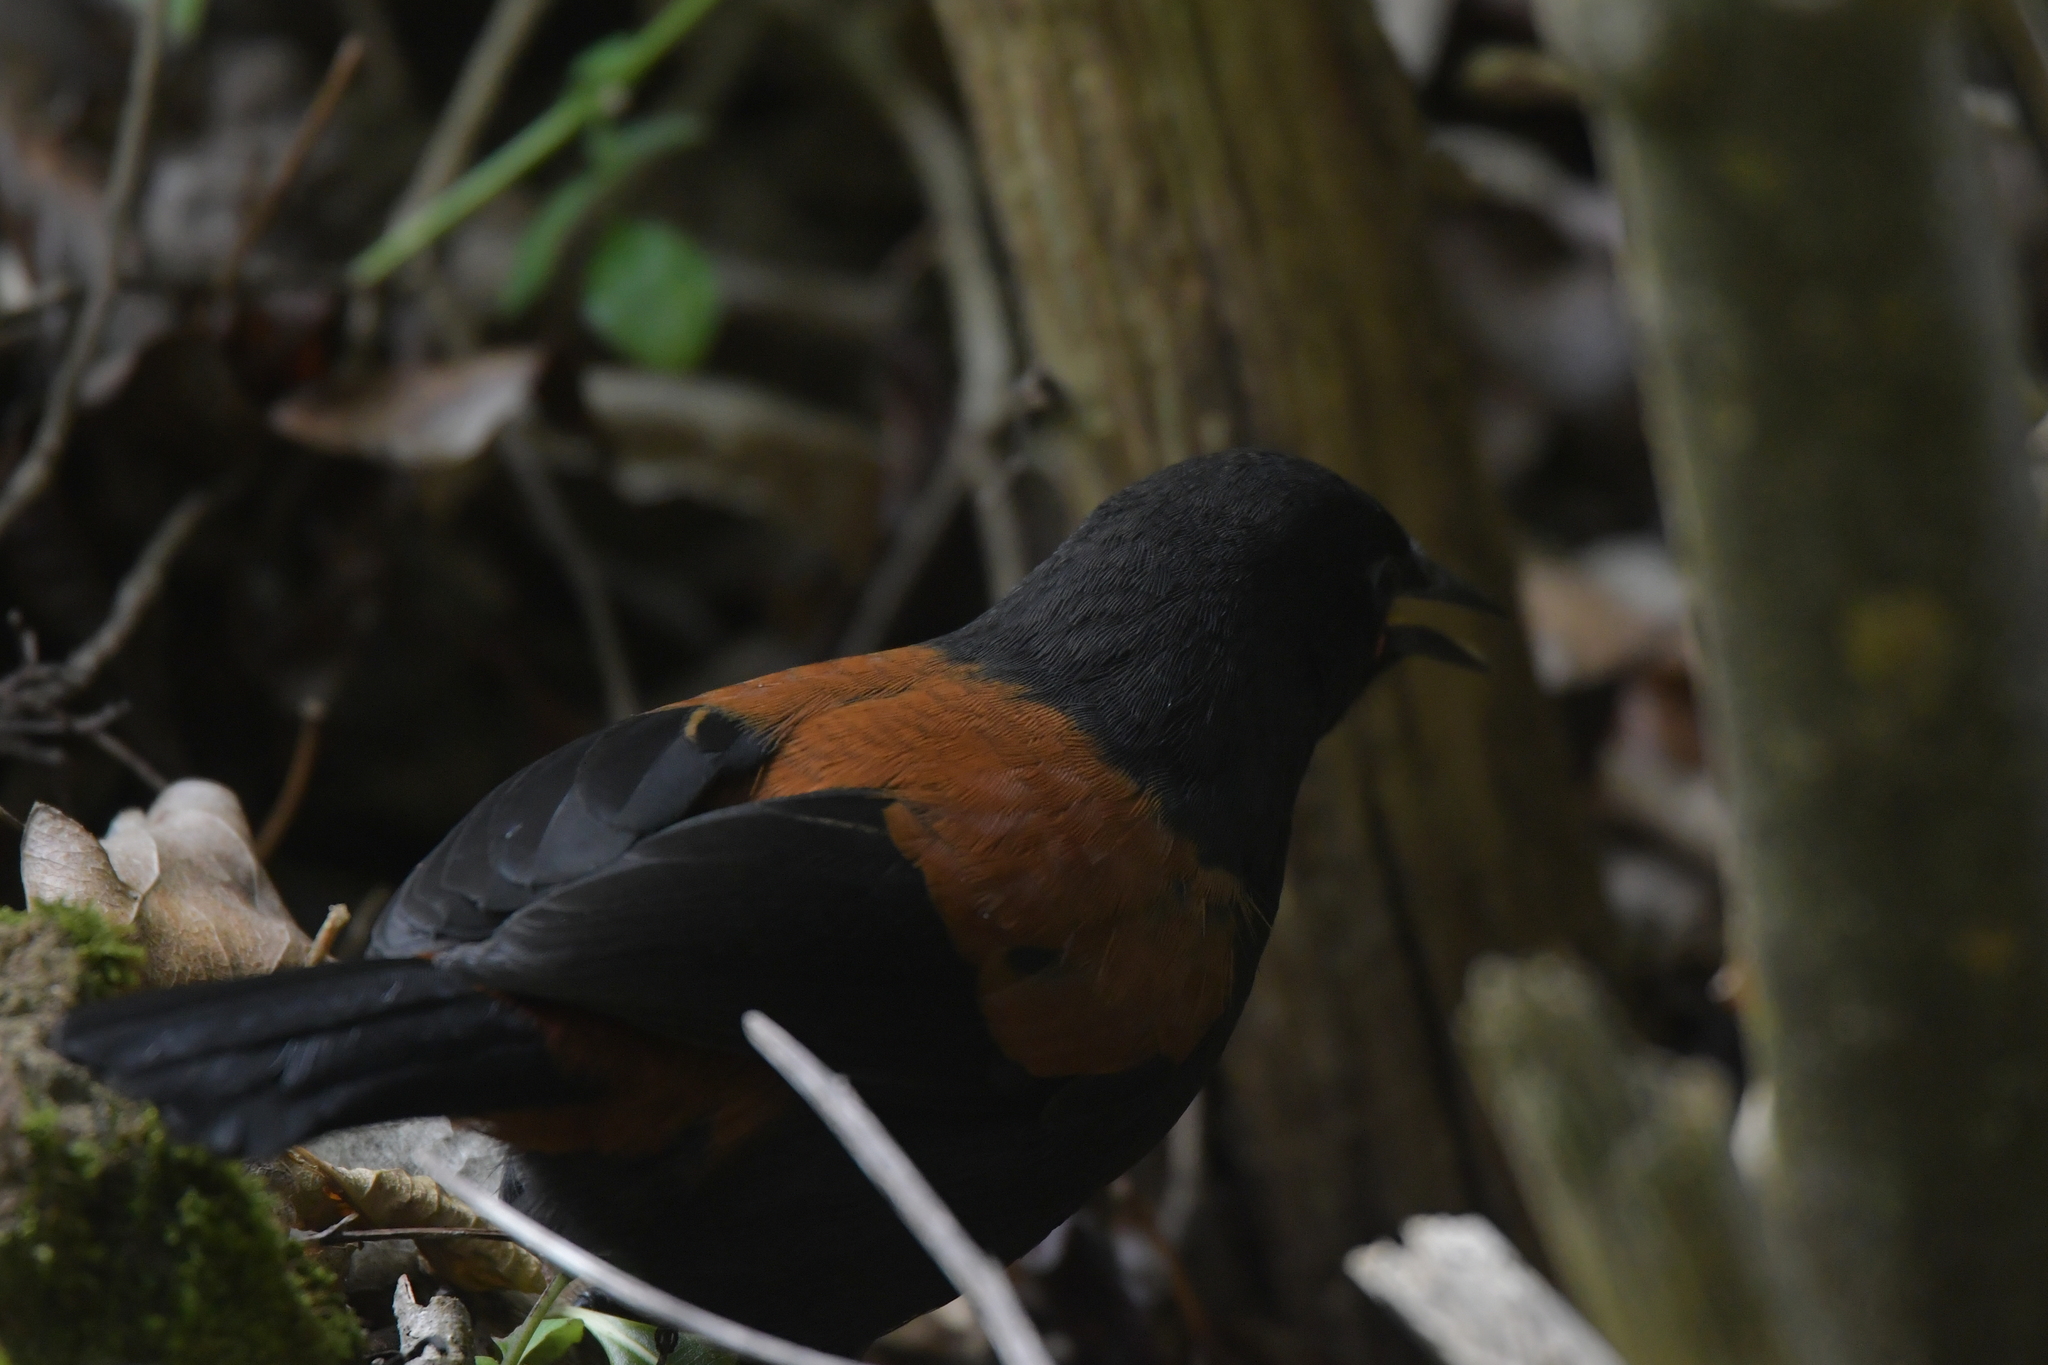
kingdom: Animalia
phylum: Chordata
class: Aves
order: Passeriformes
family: Callaeatidae
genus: Philesturnus
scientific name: Philesturnus carunculatus
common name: South island saddleback
